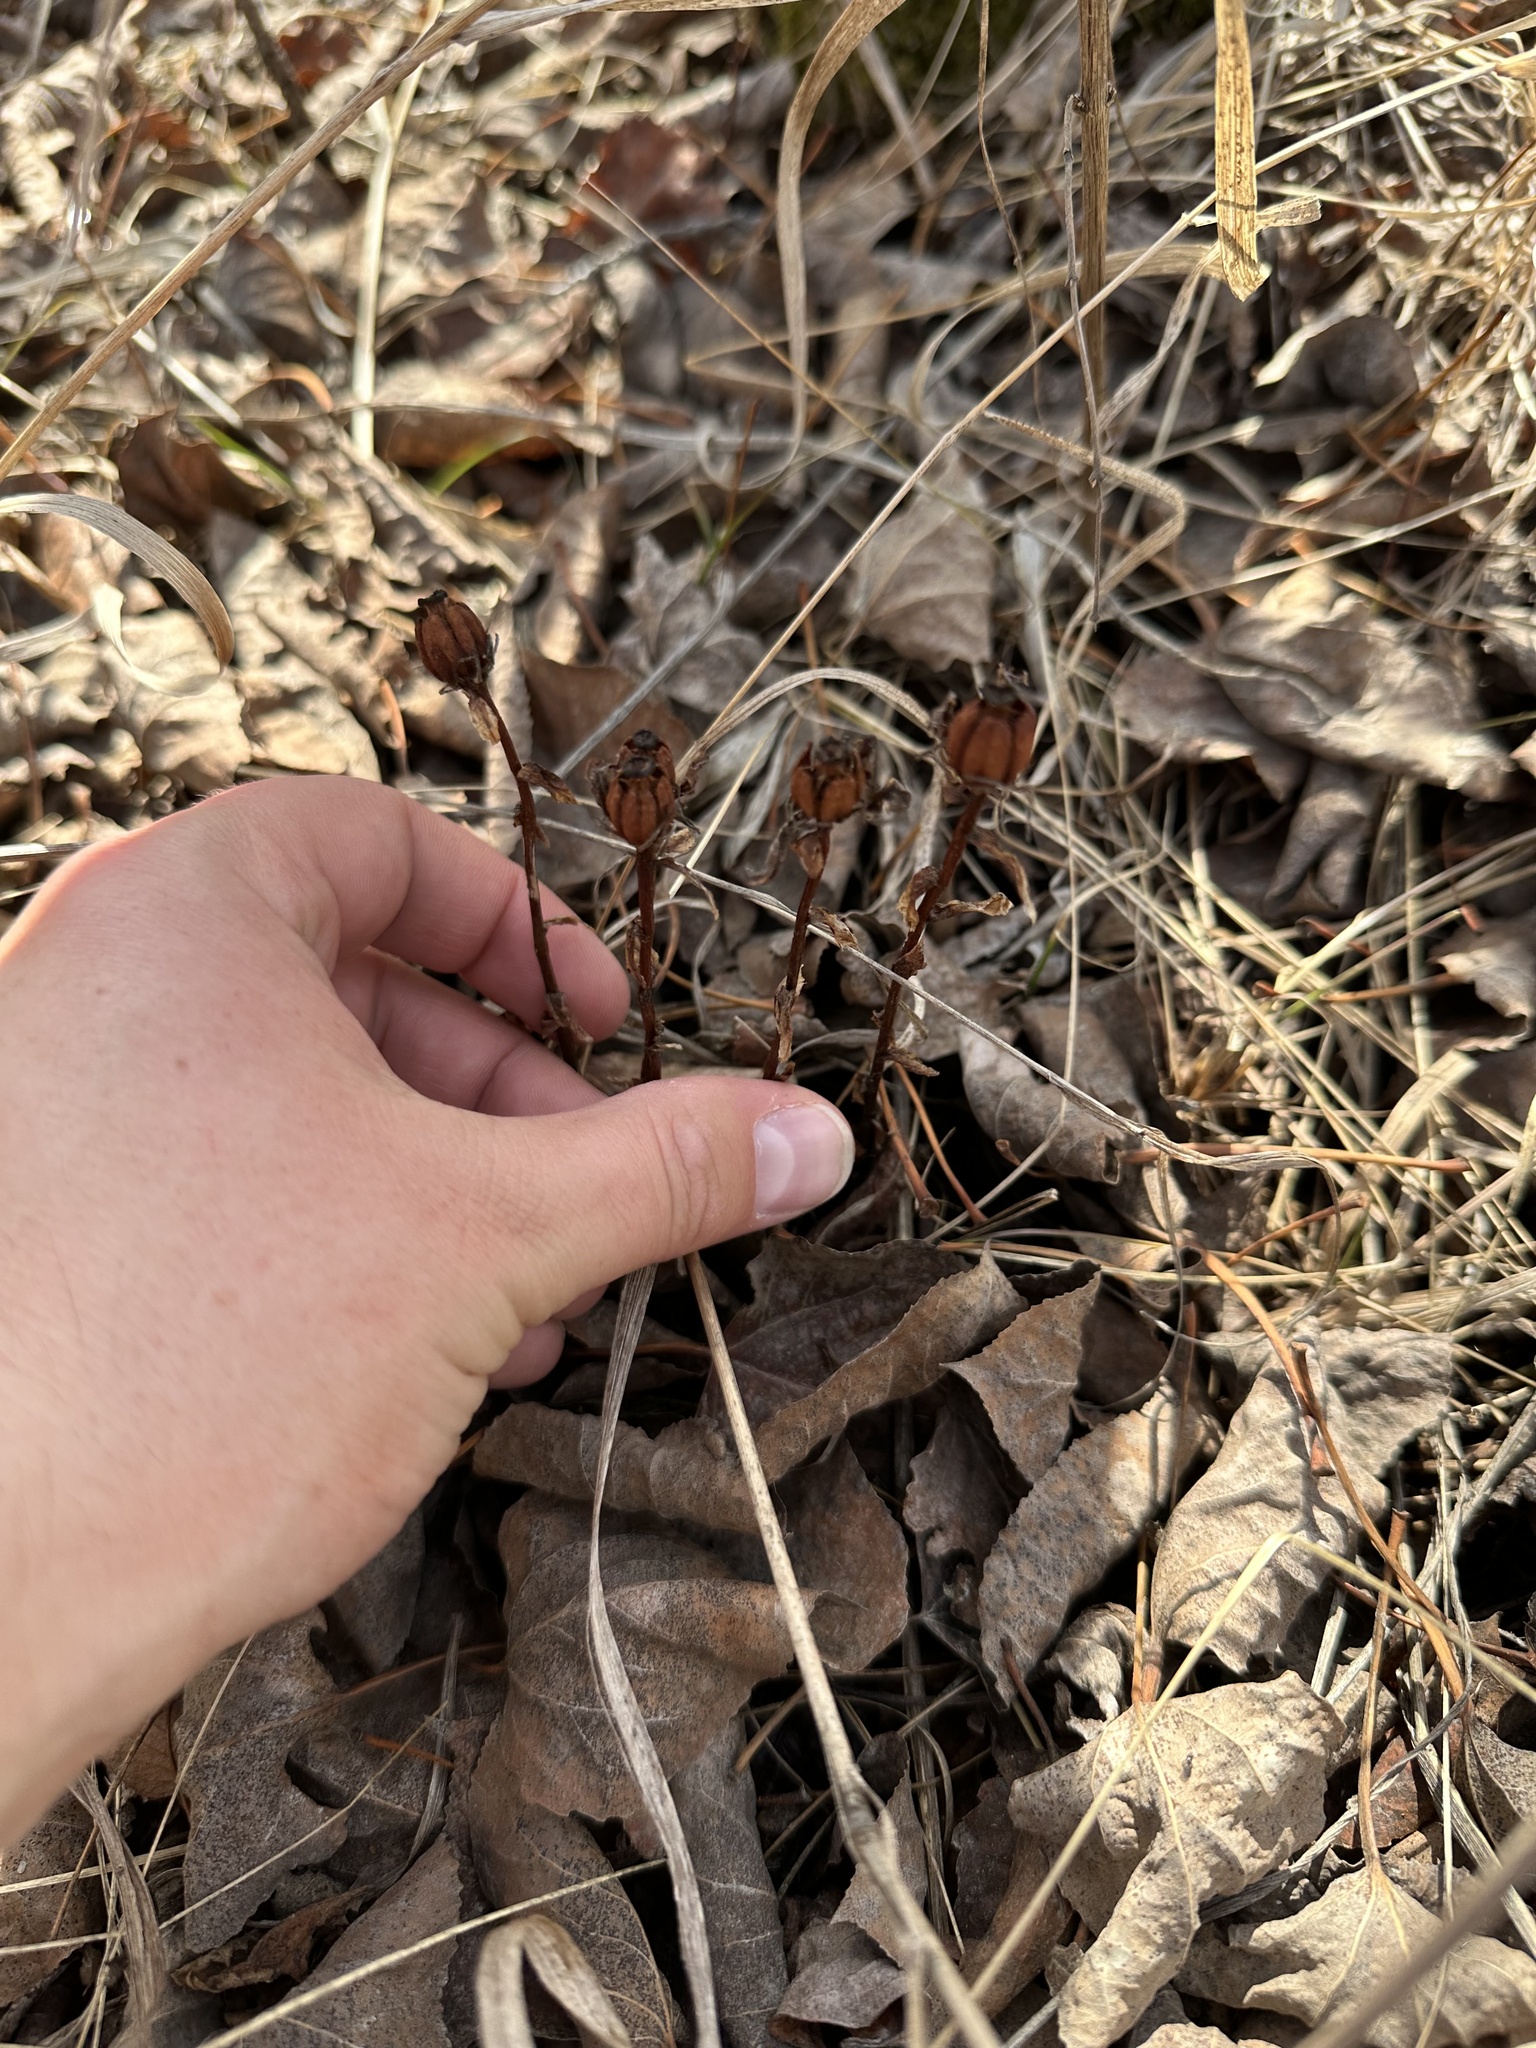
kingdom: Plantae
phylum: Tracheophyta
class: Magnoliopsida
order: Ericales
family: Ericaceae
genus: Monotropa
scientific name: Monotropa uniflora
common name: Convulsion root
